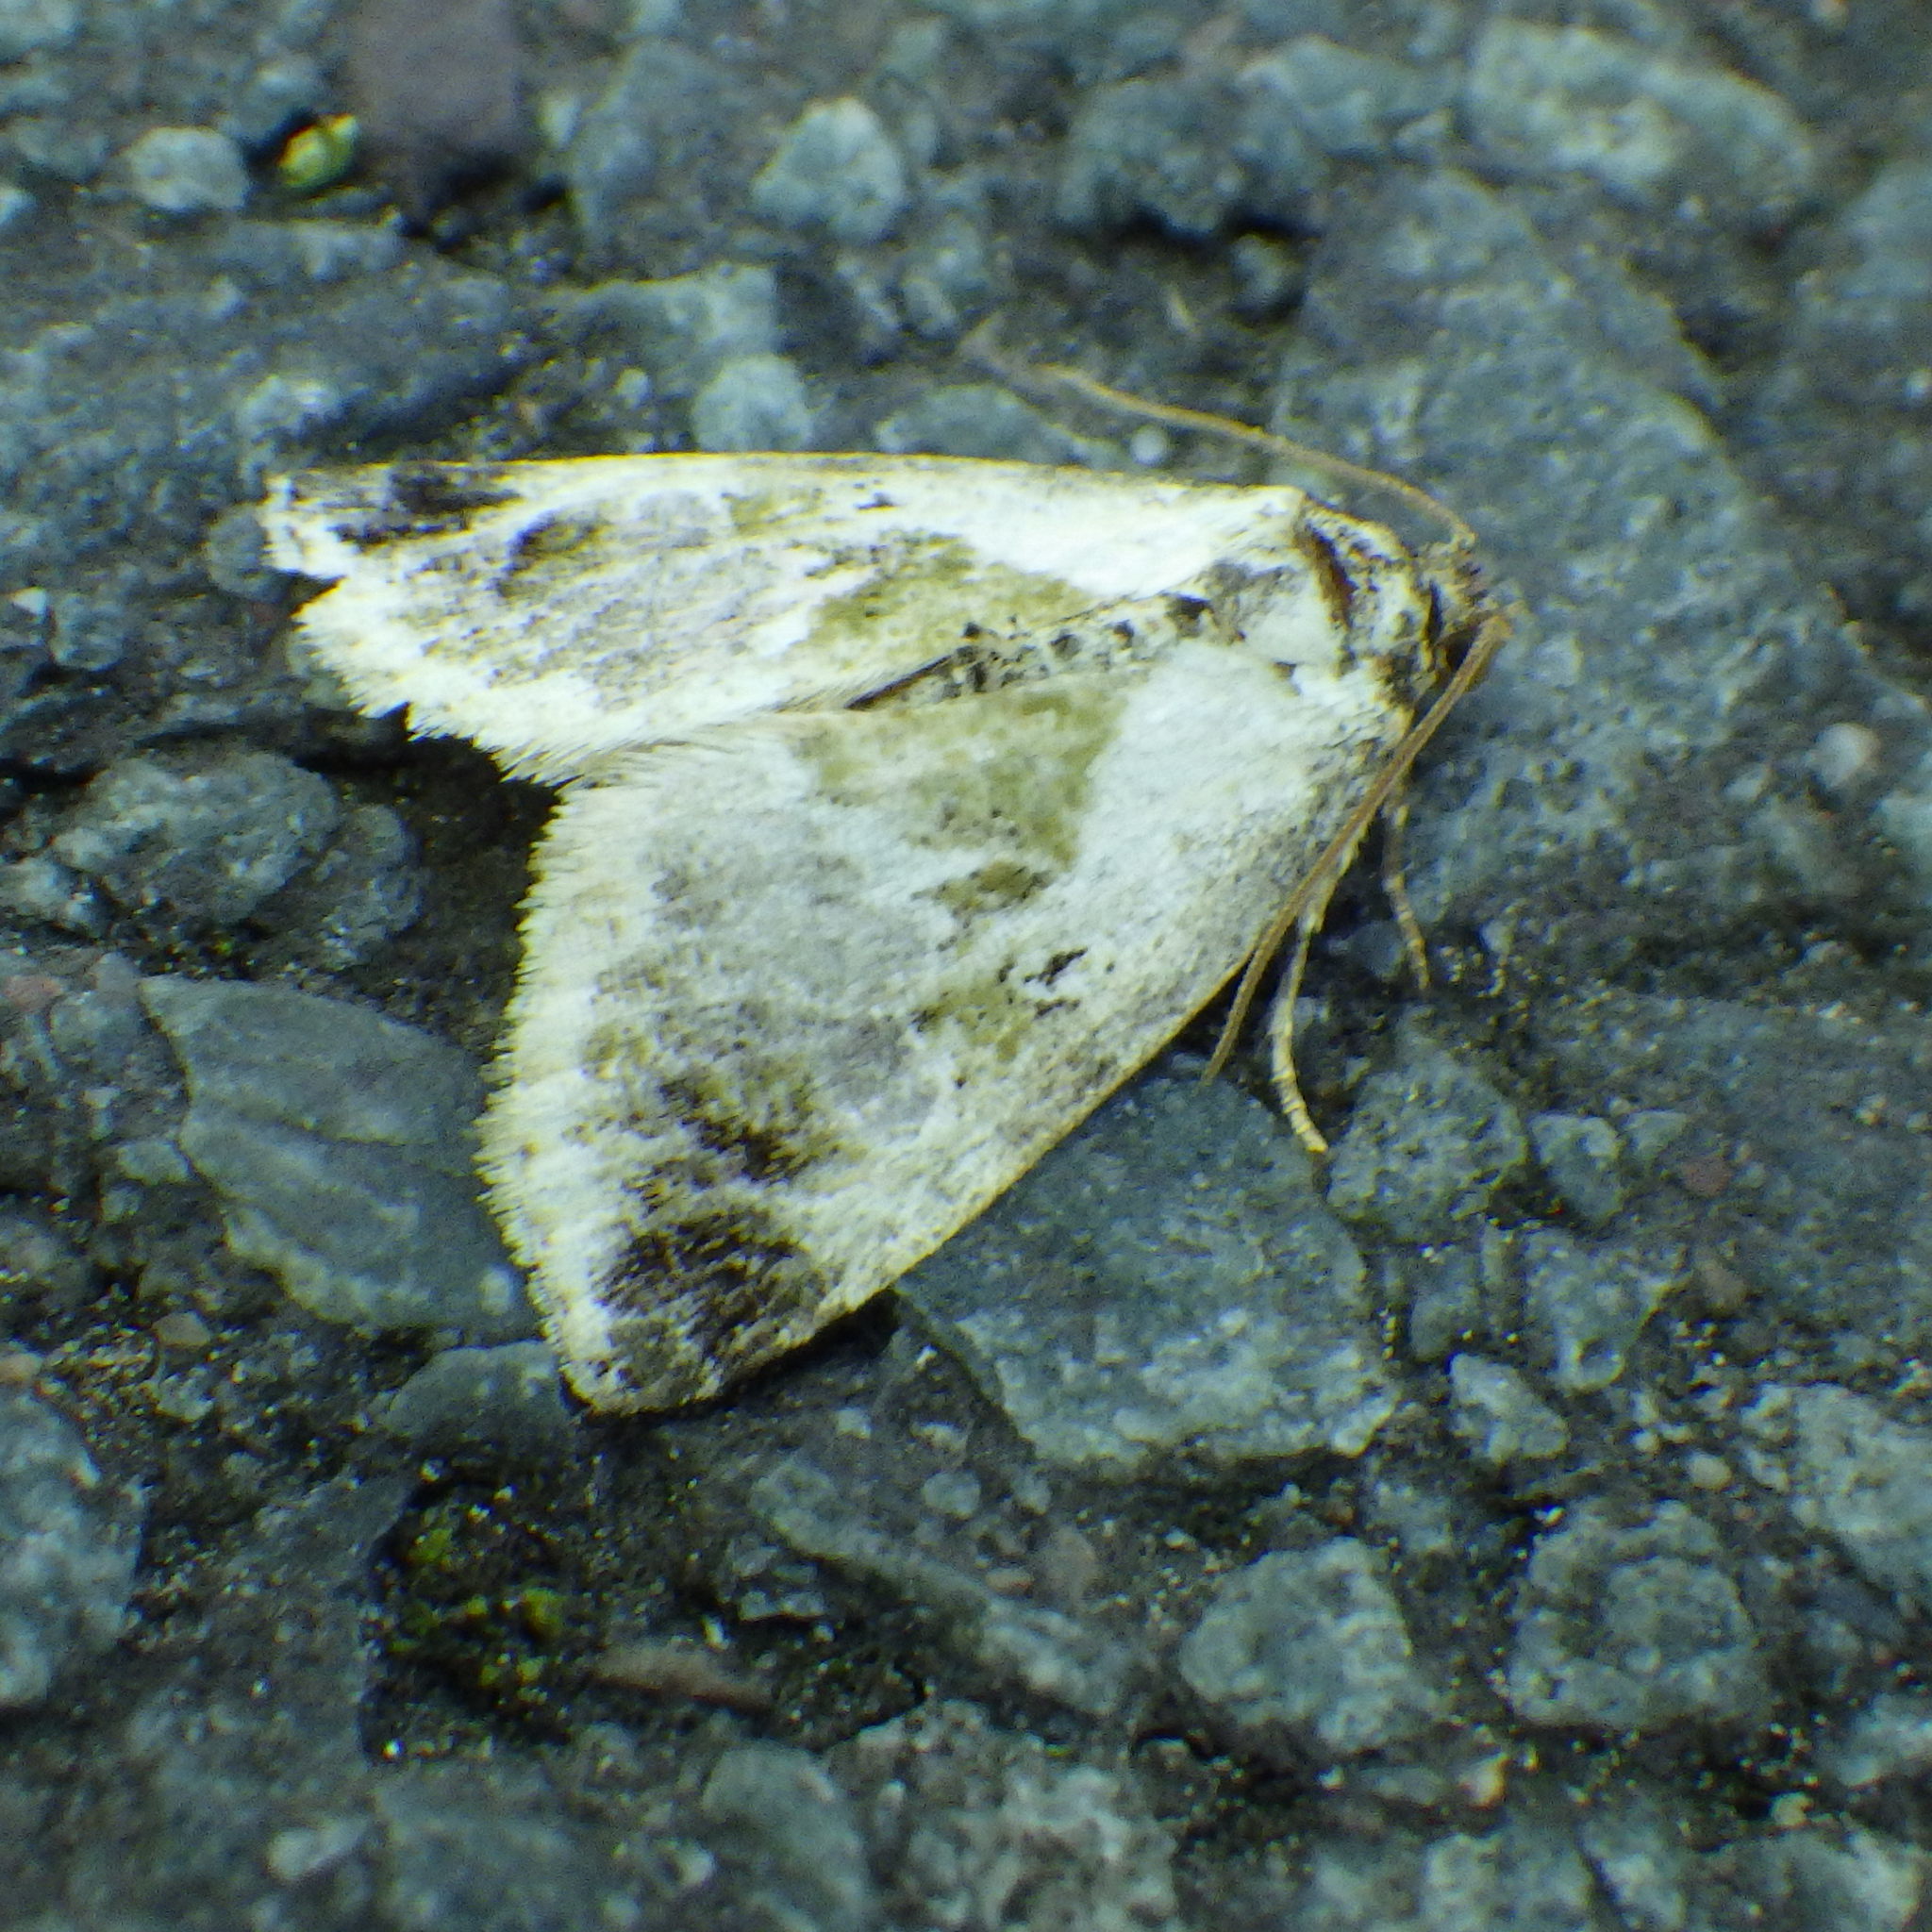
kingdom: Animalia
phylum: Arthropoda
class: Insecta
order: Lepidoptera
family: Noctuidae
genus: Maliattha
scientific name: Maliattha synochitis
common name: Black-dotted glyph
